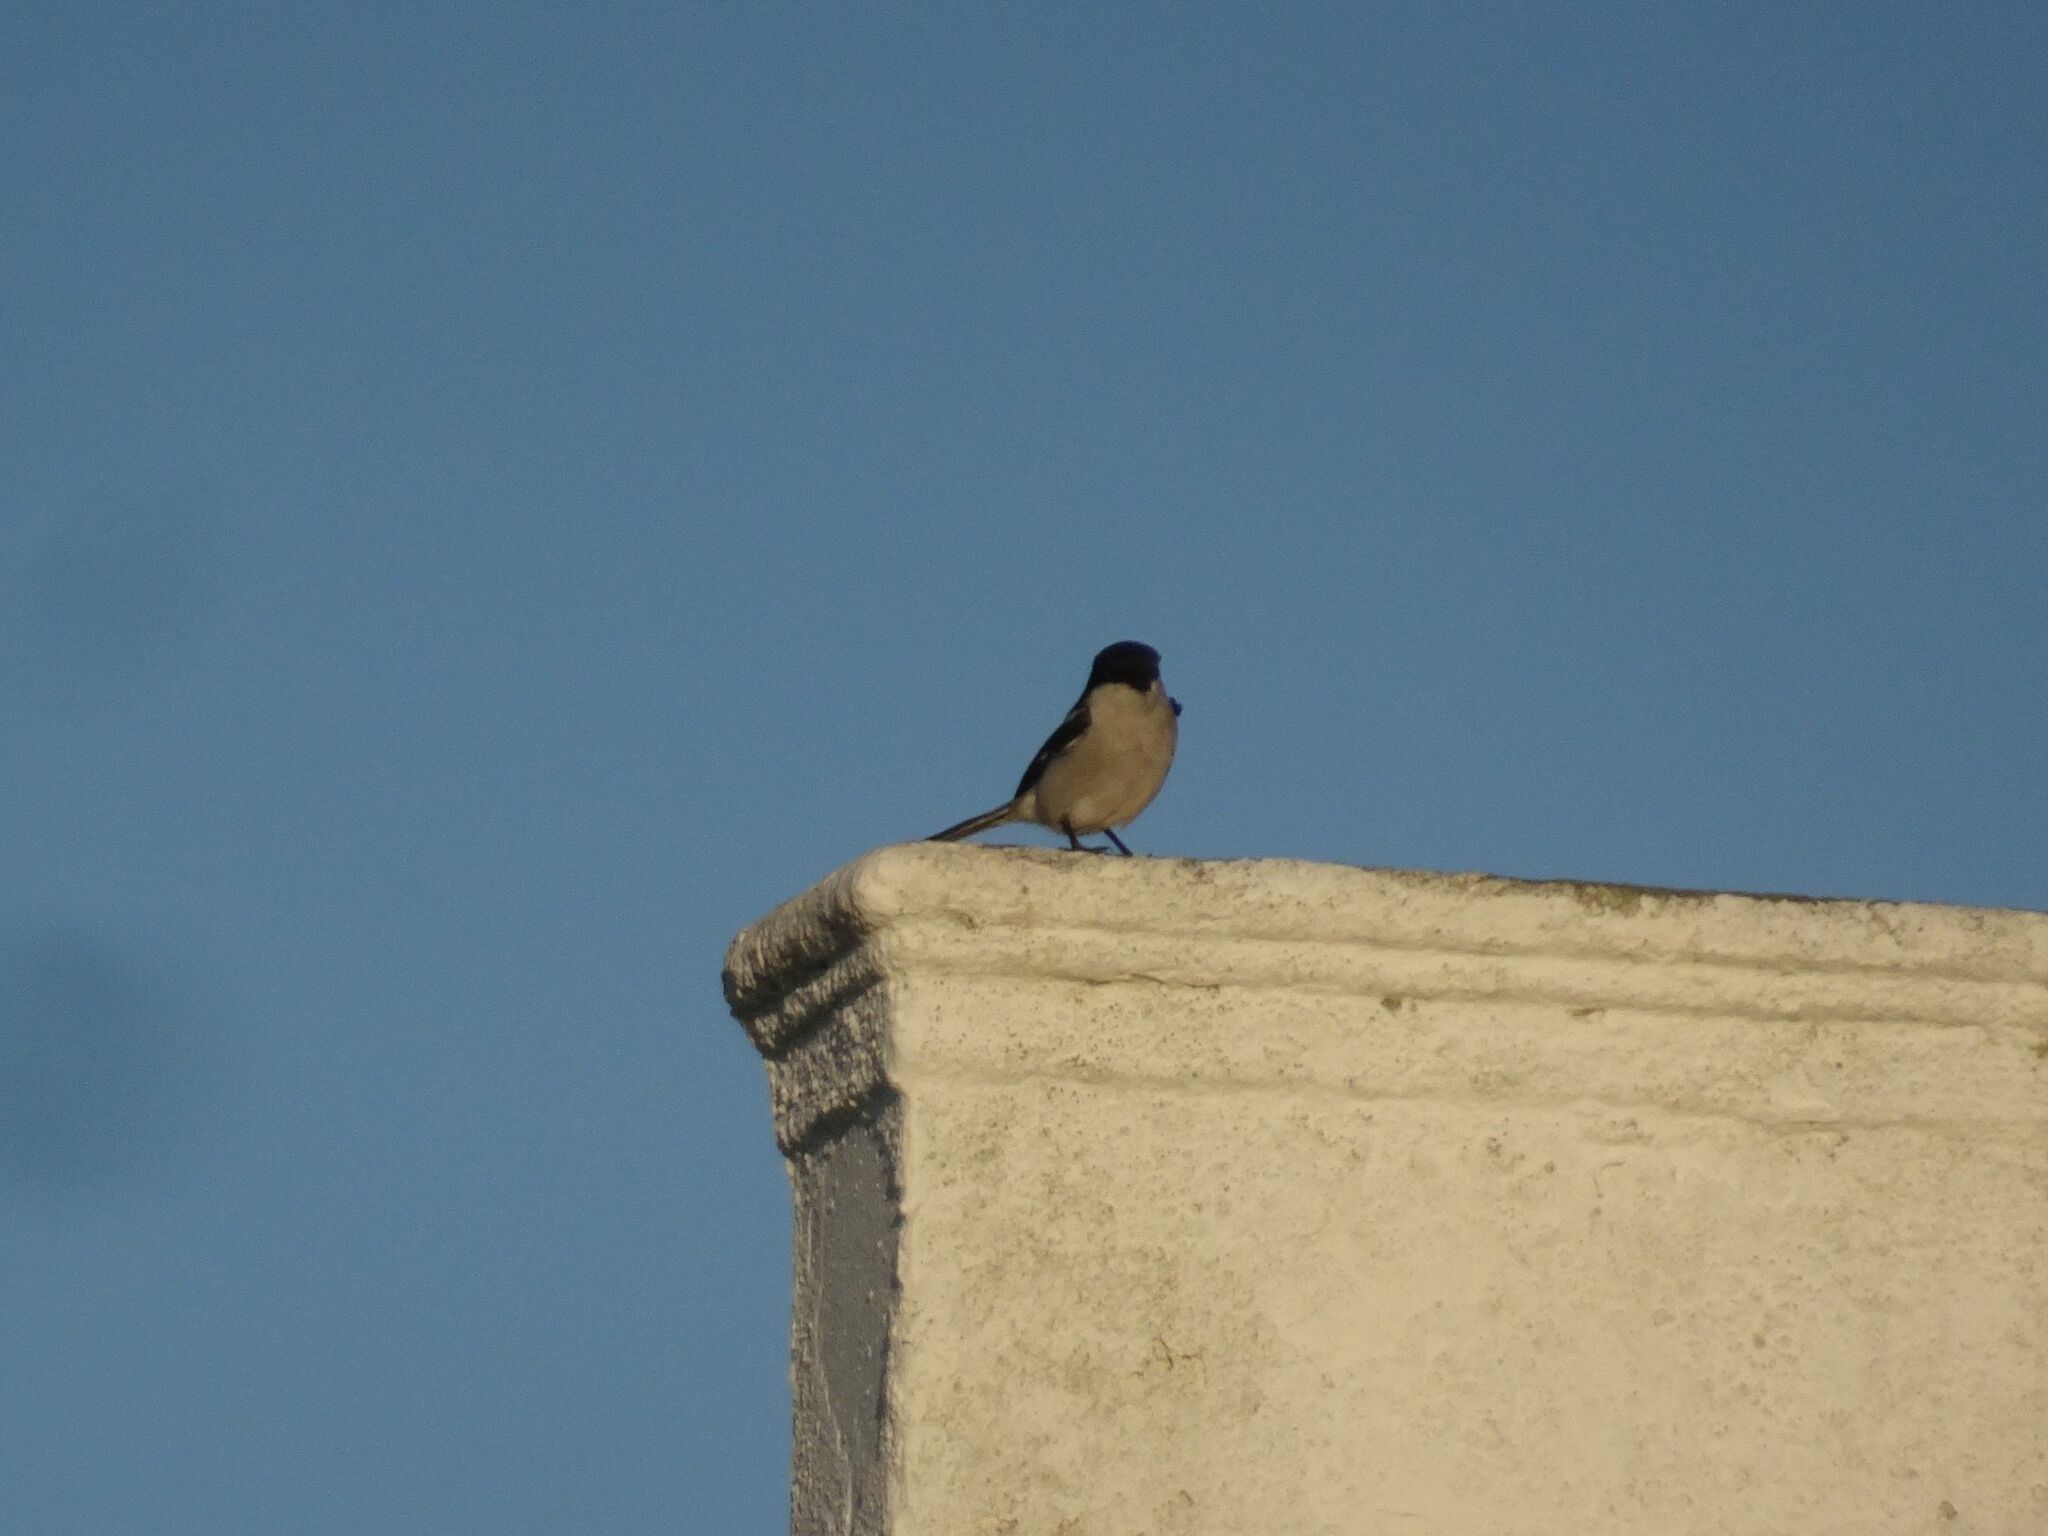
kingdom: Animalia
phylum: Chordata
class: Aves
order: Passeriformes
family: Laniidae
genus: Lanius
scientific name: Lanius collaris
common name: Southern fiscal
